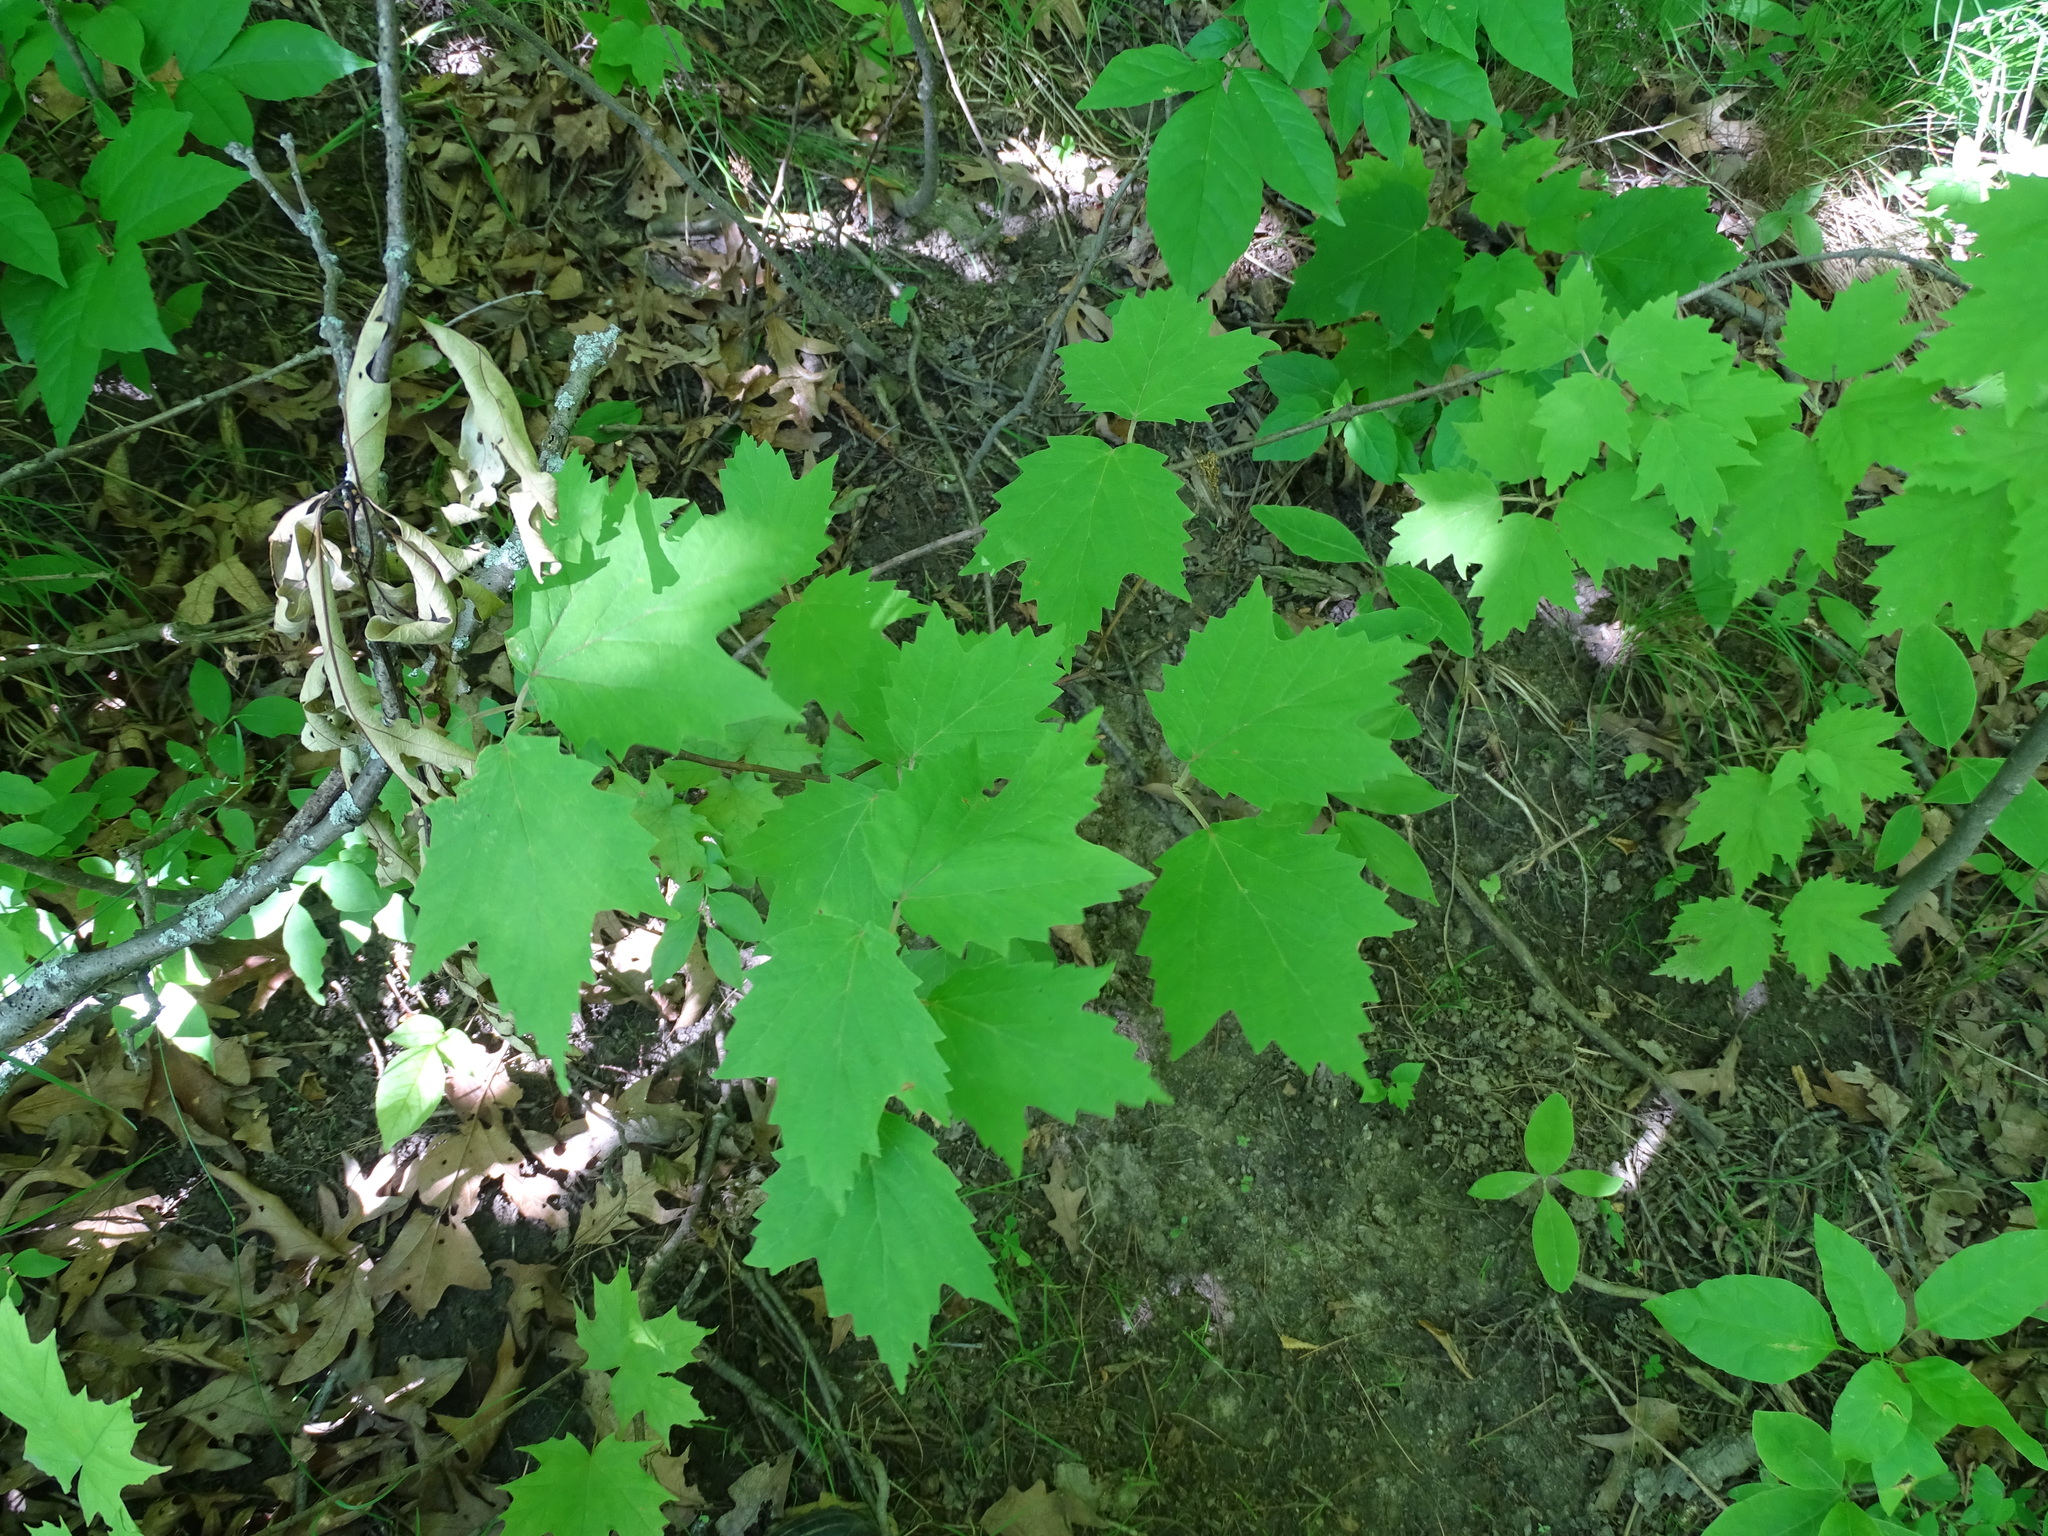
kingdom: Plantae
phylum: Tracheophyta
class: Magnoliopsida
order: Dipsacales
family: Viburnaceae
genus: Viburnum
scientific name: Viburnum acerifolium
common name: Dockmackie
